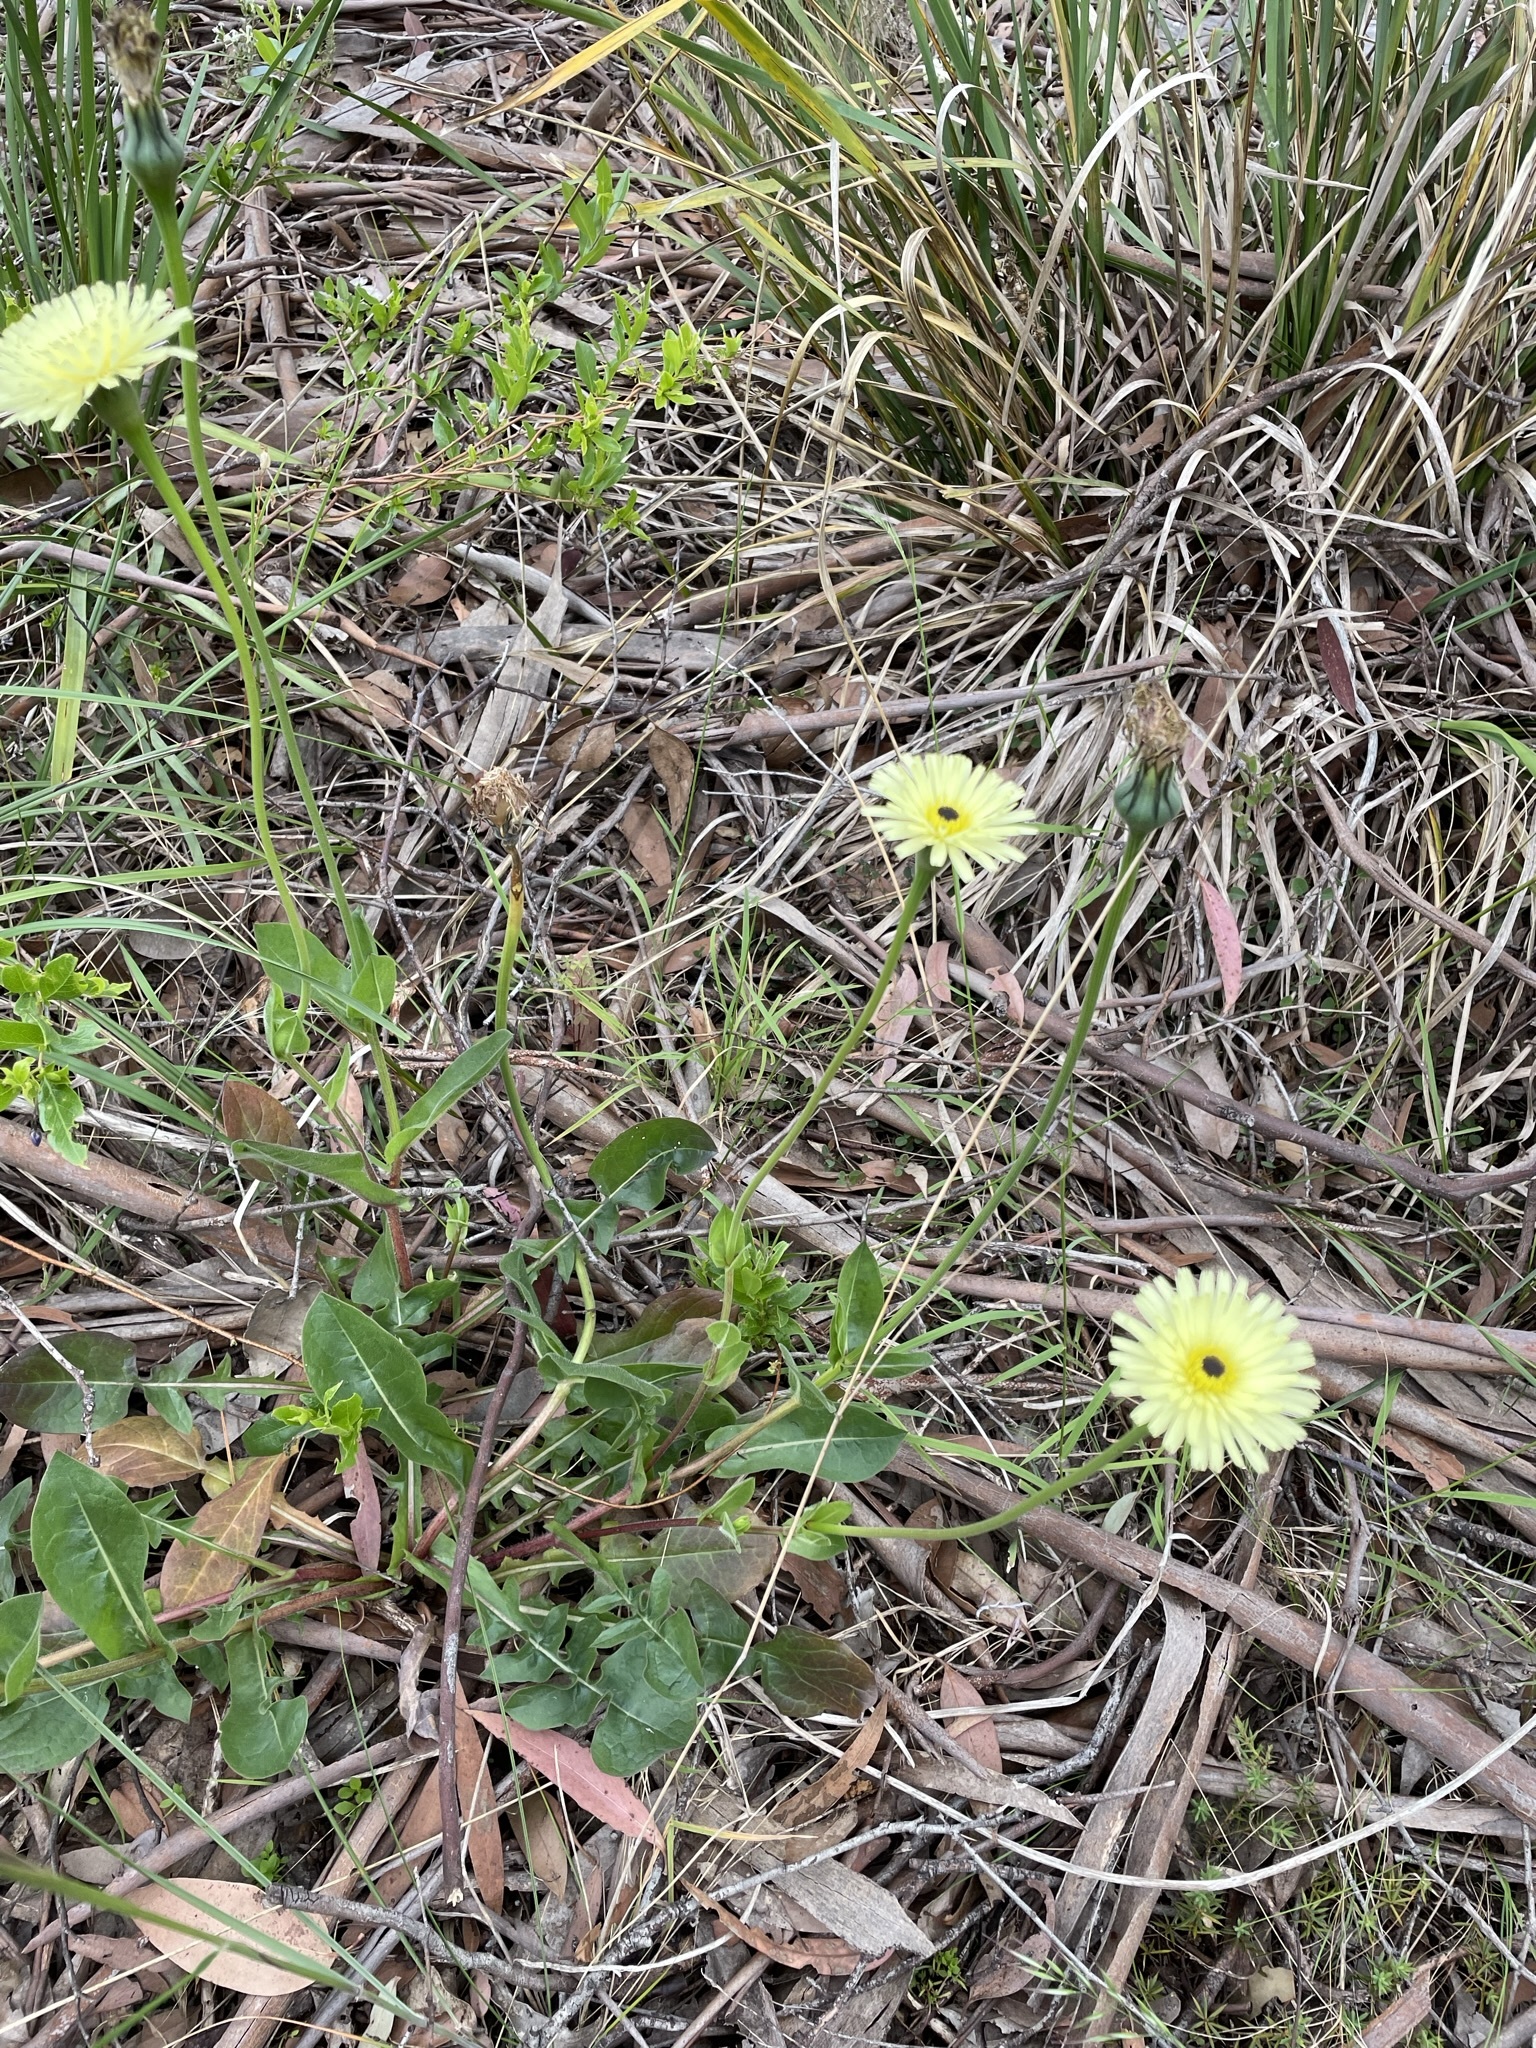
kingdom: Plantae
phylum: Tracheophyta
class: Magnoliopsida
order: Asterales
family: Asteraceae
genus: Urospermum
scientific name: Urospermum dalechampii
